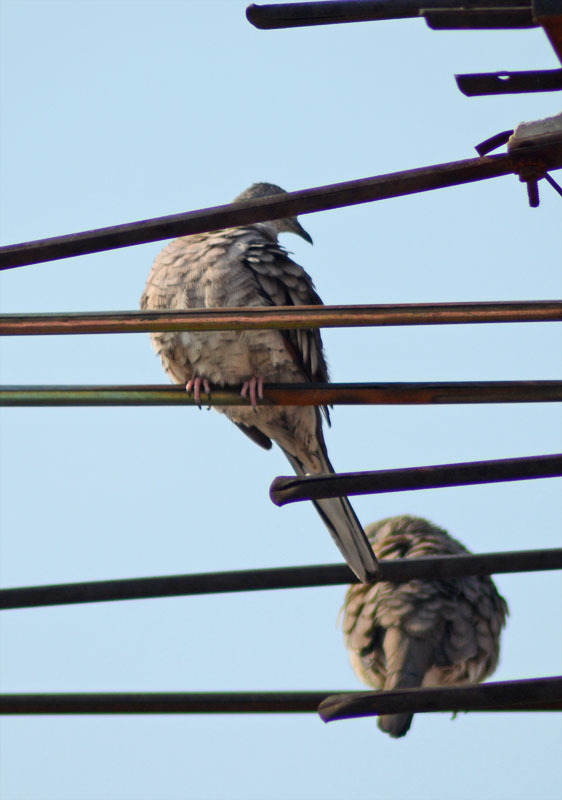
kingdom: Animalia
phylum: Chordata
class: Aves
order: Columbiformes
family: Columbidae
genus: Columbina
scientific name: Columbina inca
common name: Inca dove
